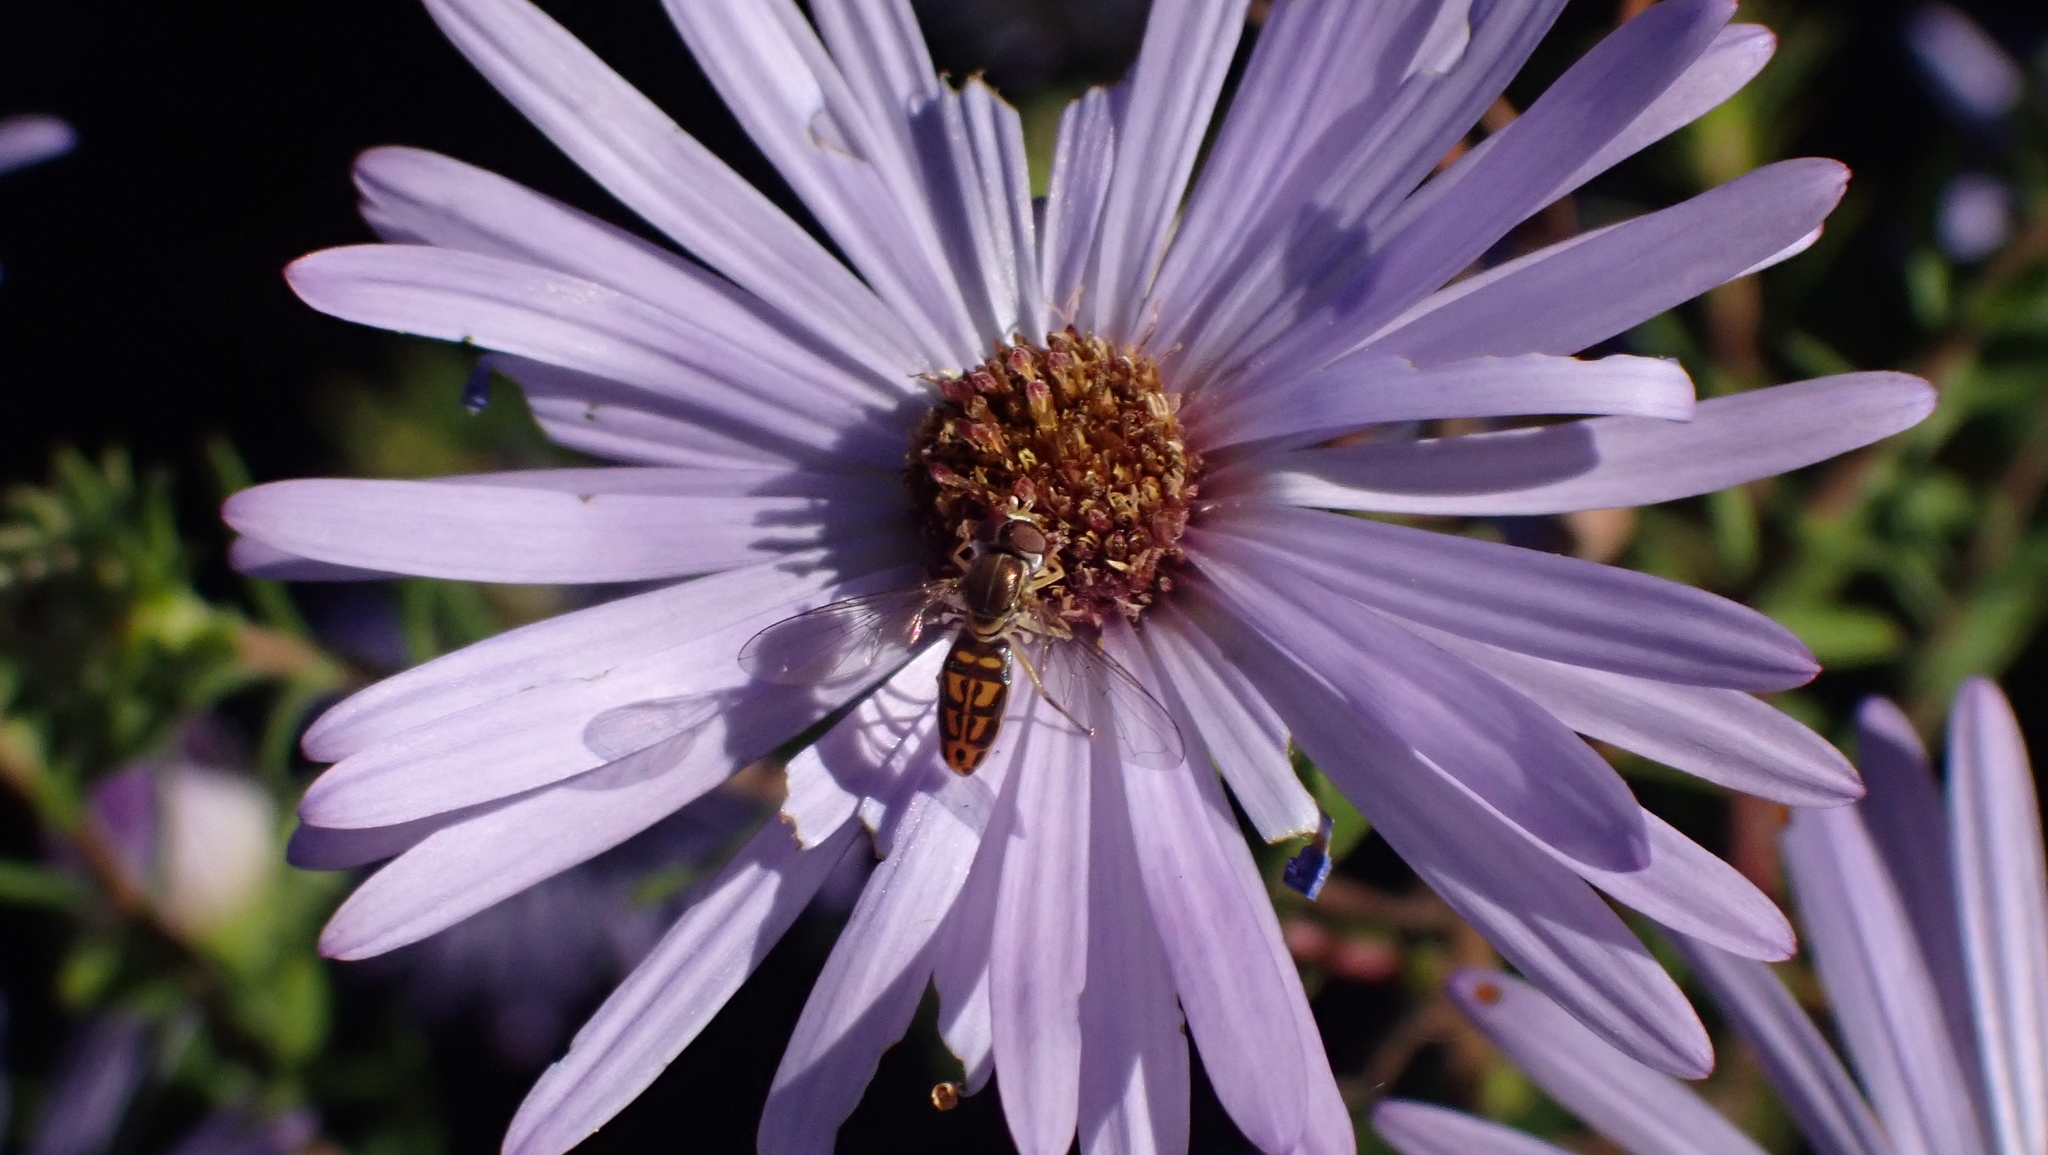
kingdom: Animalia
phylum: Arthropoda
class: Insecta
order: Diptera
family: Syrphidae
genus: Toxomerus
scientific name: Toxomerus marginatus
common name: Syrphid fly
